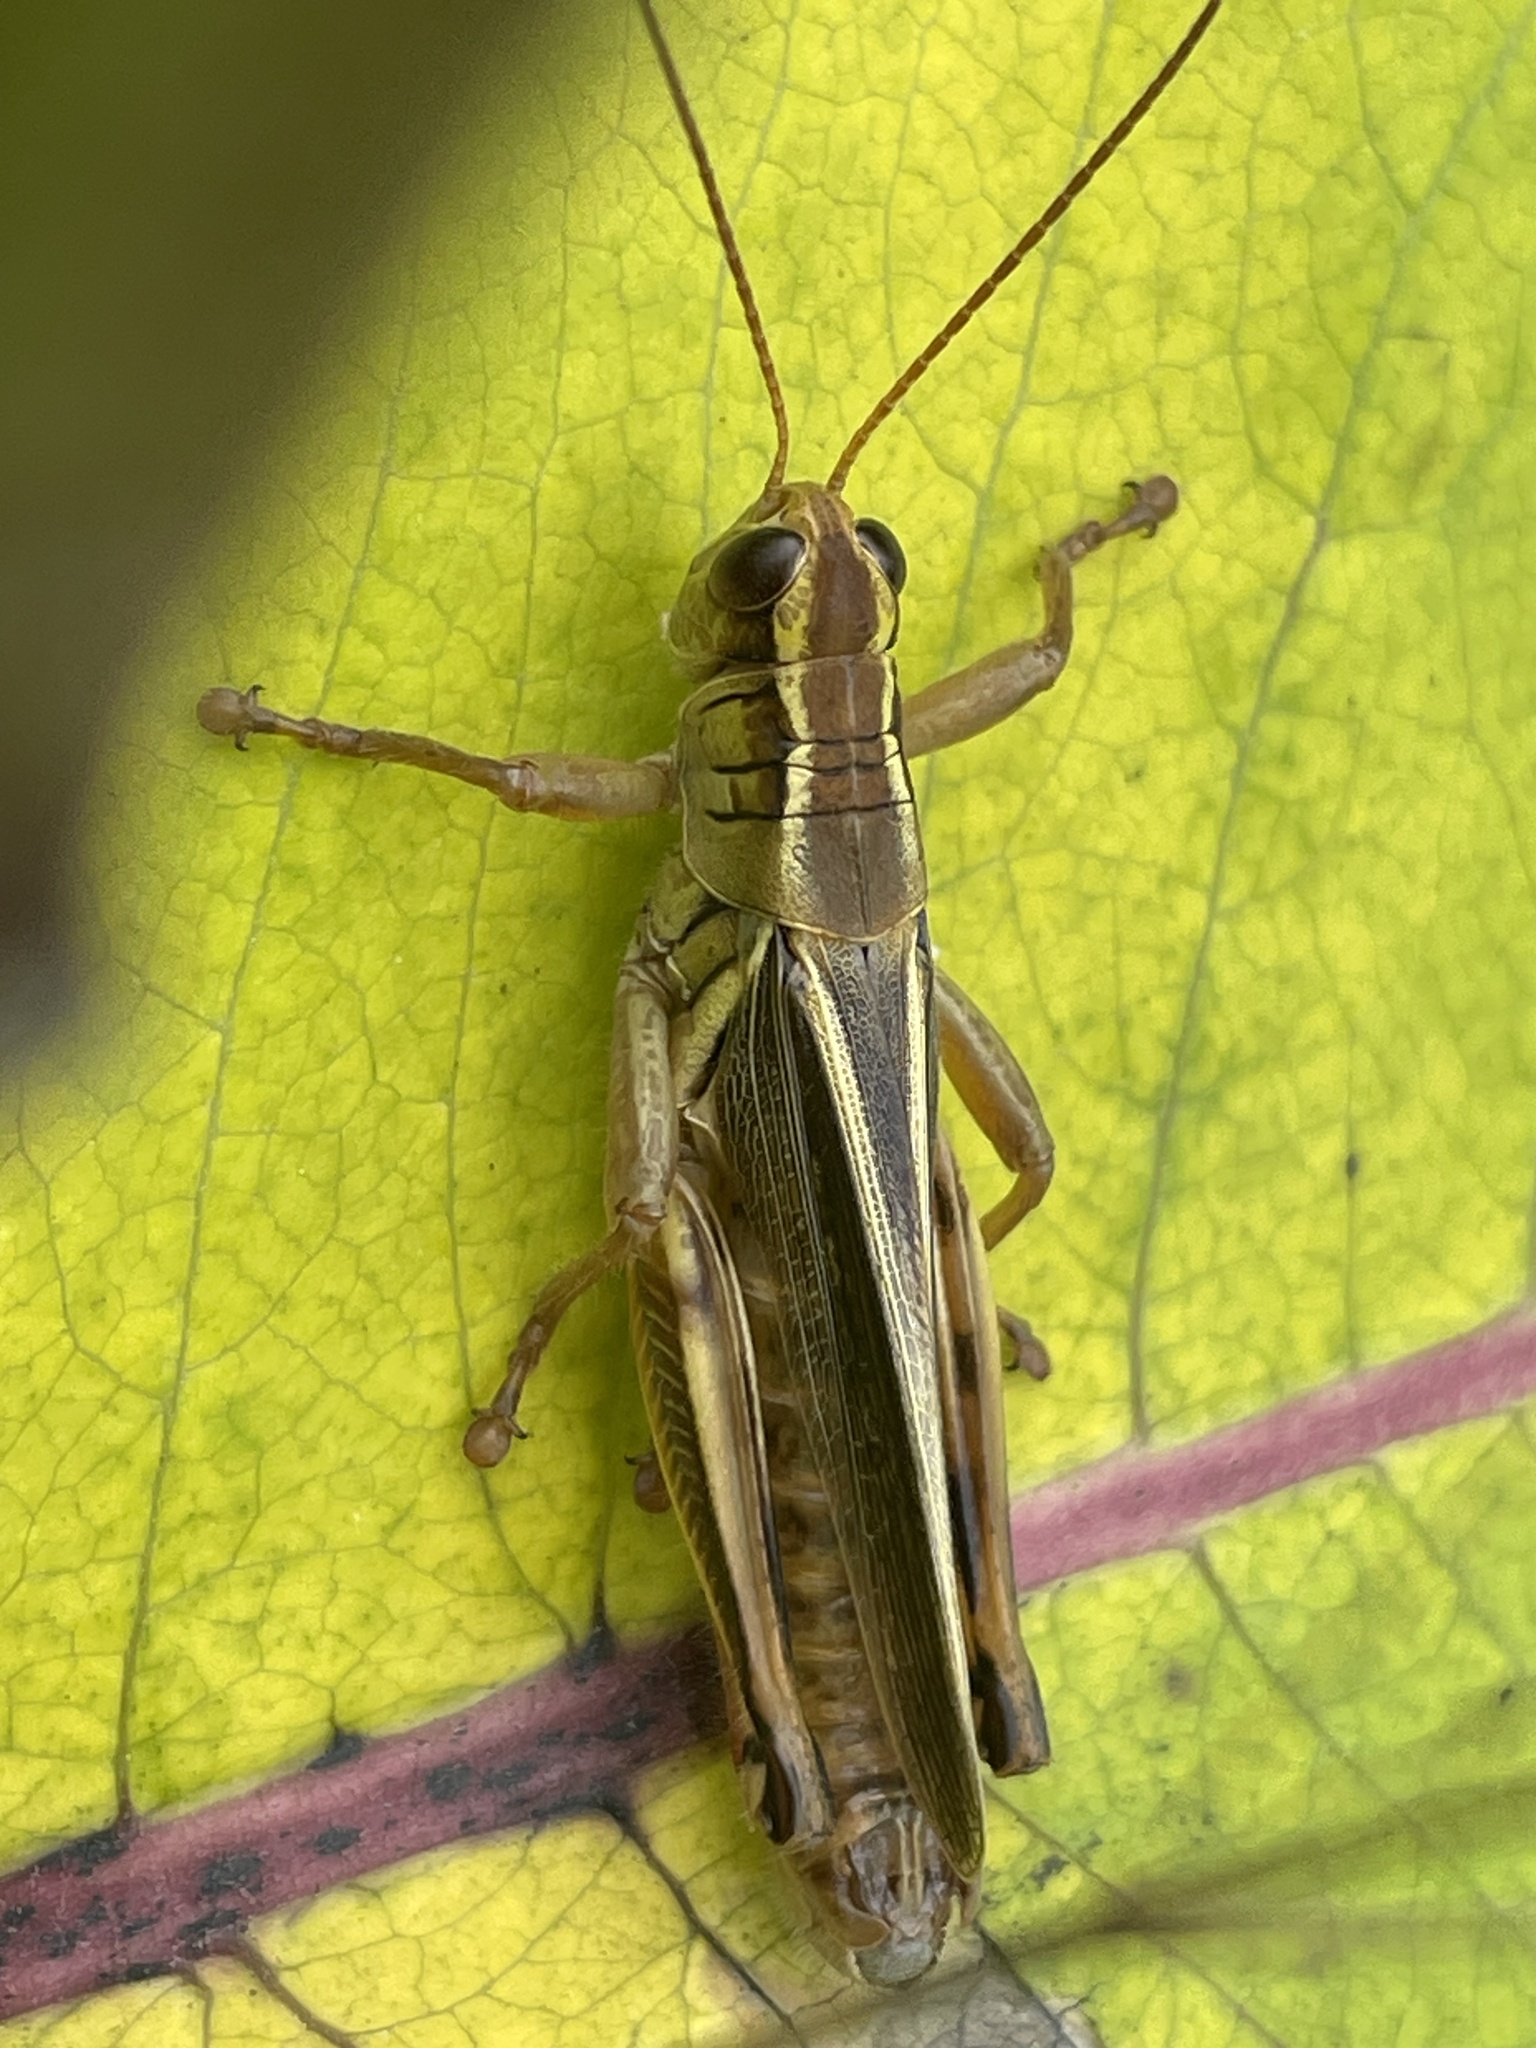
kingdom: Animalia
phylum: Arthropoda
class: Insecta
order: Orthoptera
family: Acrididae
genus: Melanoplus
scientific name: Melanoplus bivittatus
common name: Two-striped grasshopper
